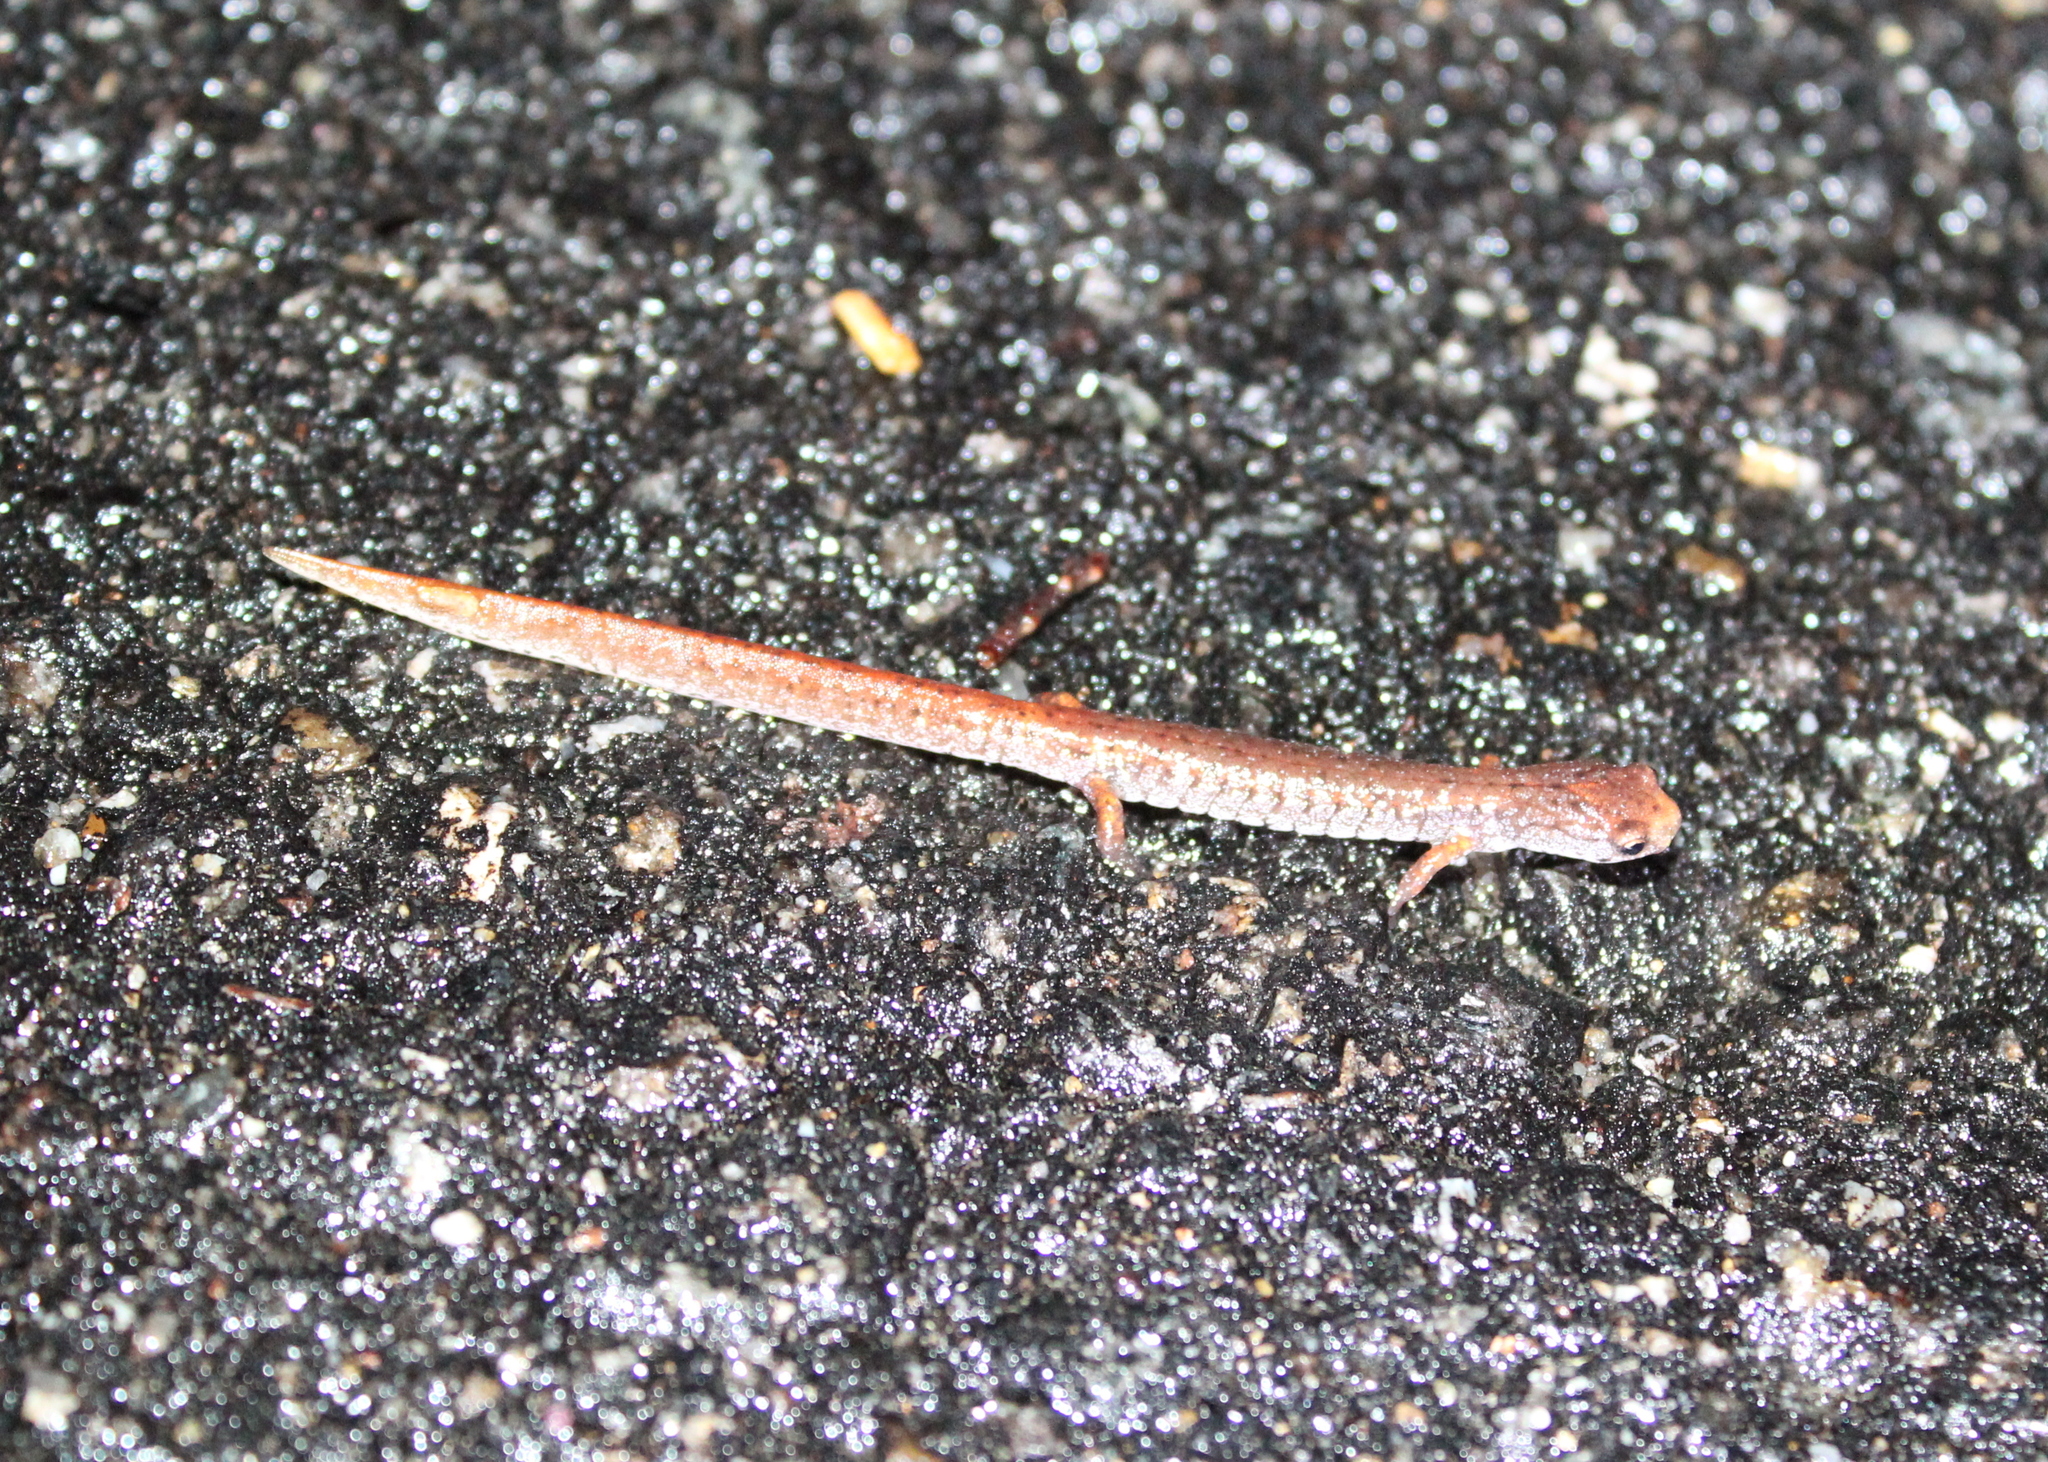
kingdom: Animalia
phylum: Chordata
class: Amphibia
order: Caudata
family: Plethodontidae
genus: Hemidactylium
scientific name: Hemidactylium scutatum
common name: Four-toed salamander
